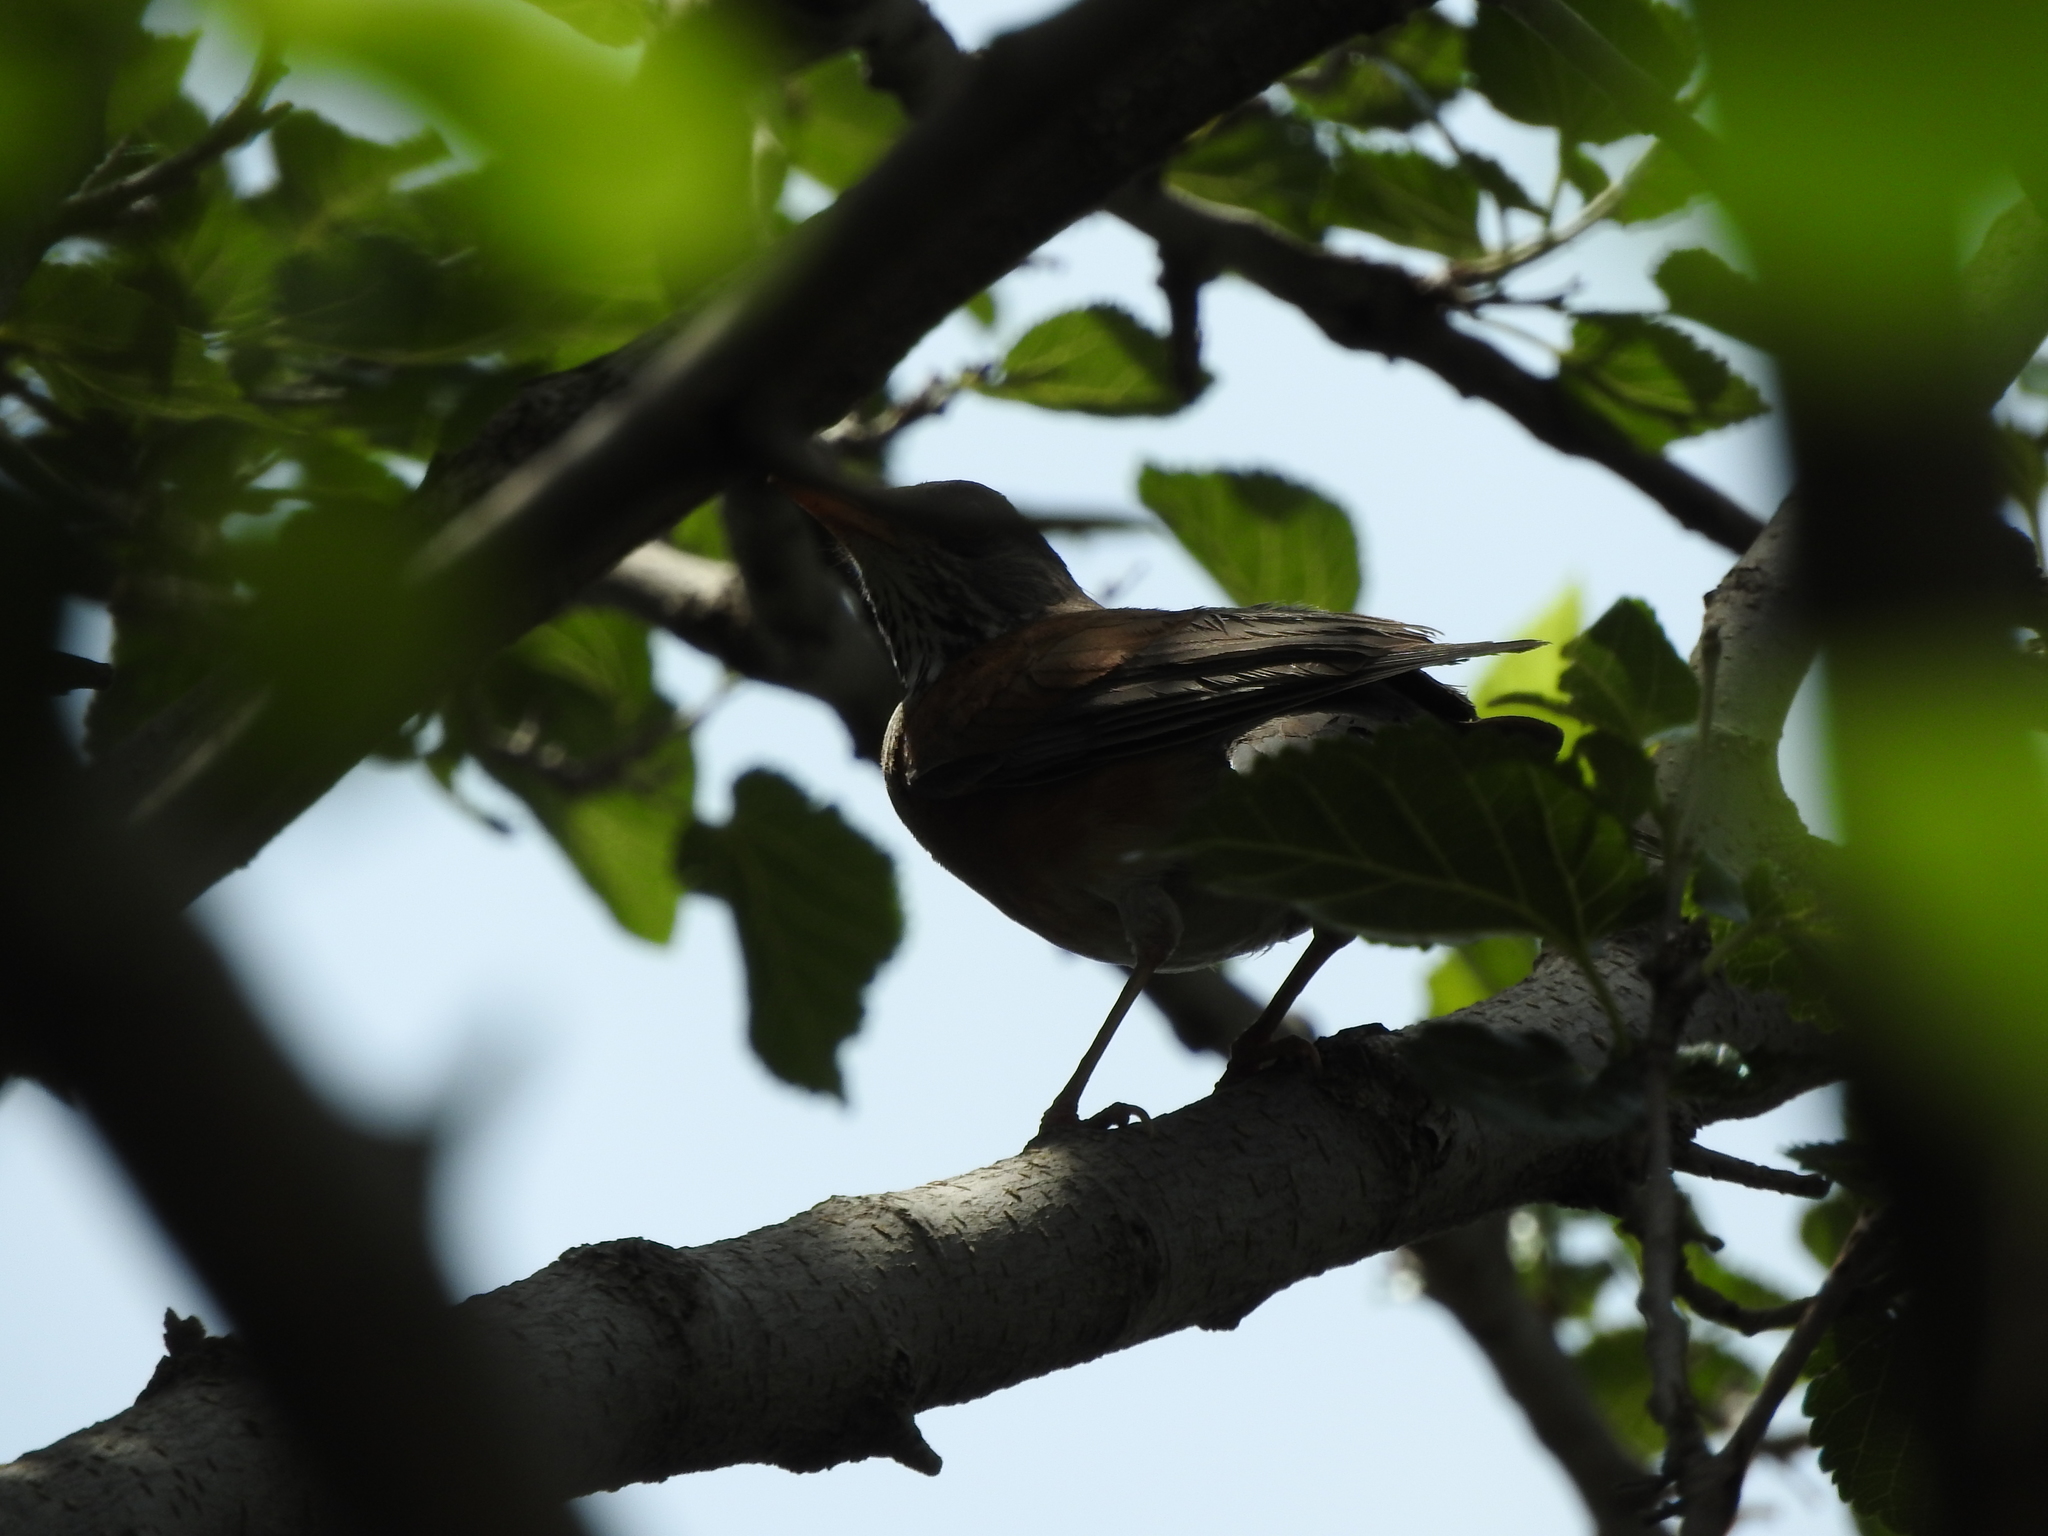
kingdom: Animalia
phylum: Chordata
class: Aves
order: Passeriformes
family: Turdidae
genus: Turdus
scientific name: Turdus rufopalliatus
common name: Rufous-backed robin
